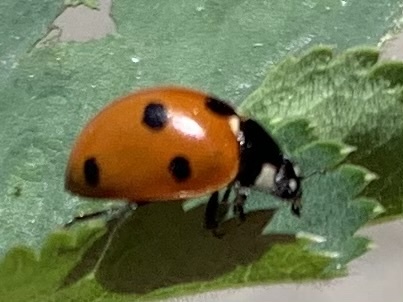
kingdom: Animalia
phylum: Arthropoda
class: Insecta
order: Coleoptera
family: Coccinellidae
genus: Coccinella
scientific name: Coccinella septempunctata
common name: Sevenspotted lady beetle
